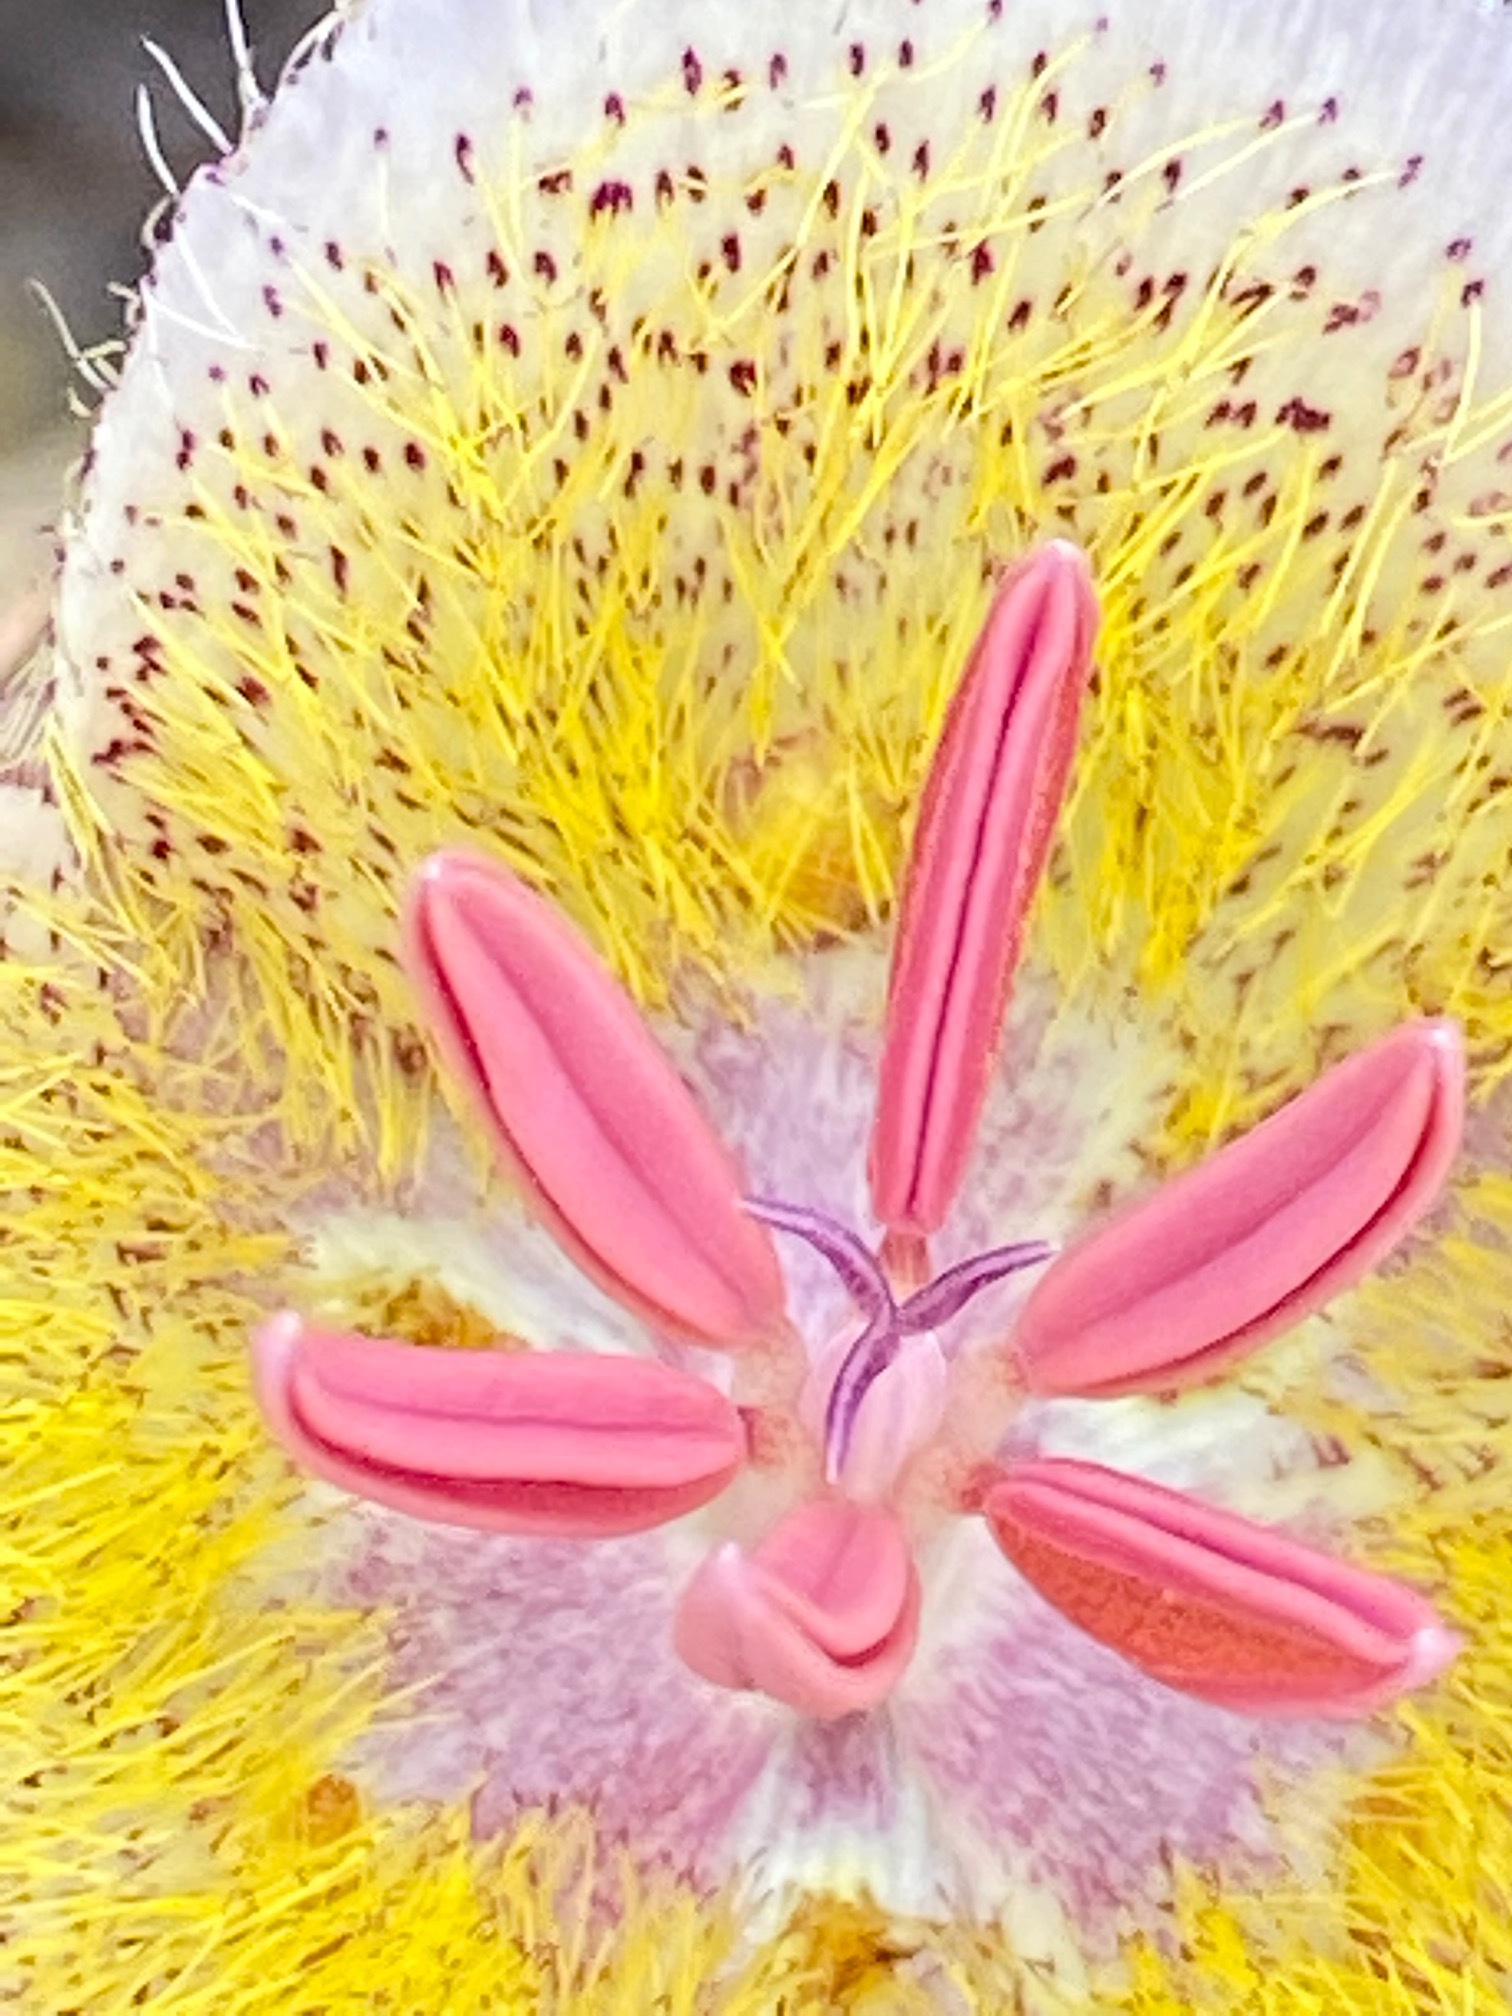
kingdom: Plantae
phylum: Tracheophyta
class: Liliopsida
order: Liliales
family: Liliaceae
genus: Calochortus
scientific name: Calochortus weedii
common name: Weed's mariposa-lily
